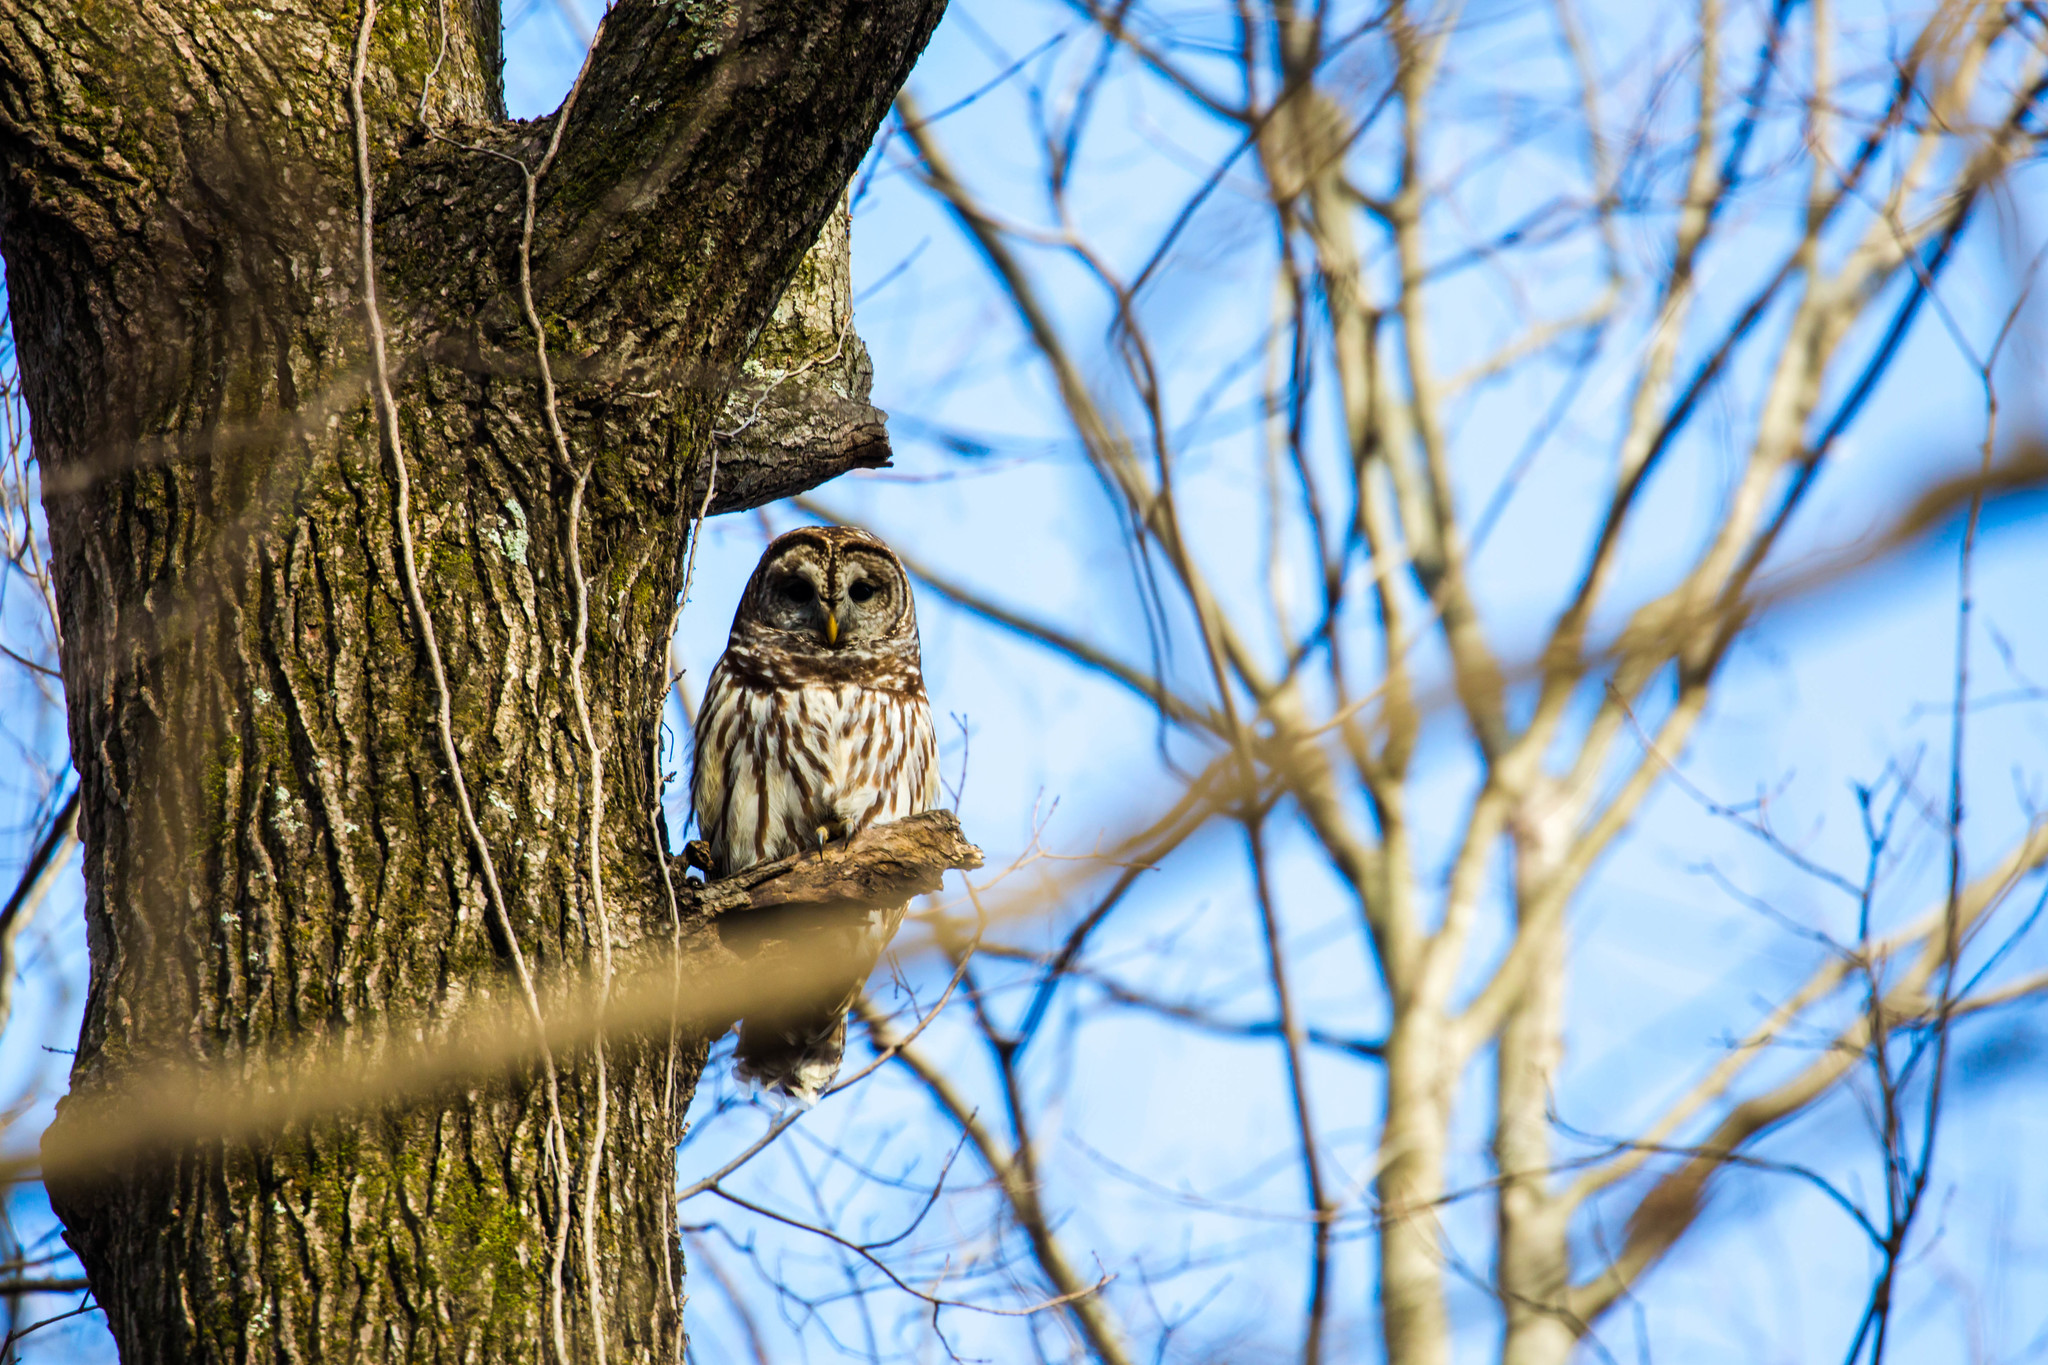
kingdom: Animalia
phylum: Chordata
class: Aves
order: Strigiformes
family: Strigidae
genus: Strix
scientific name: Strix varia
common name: Barred owl
